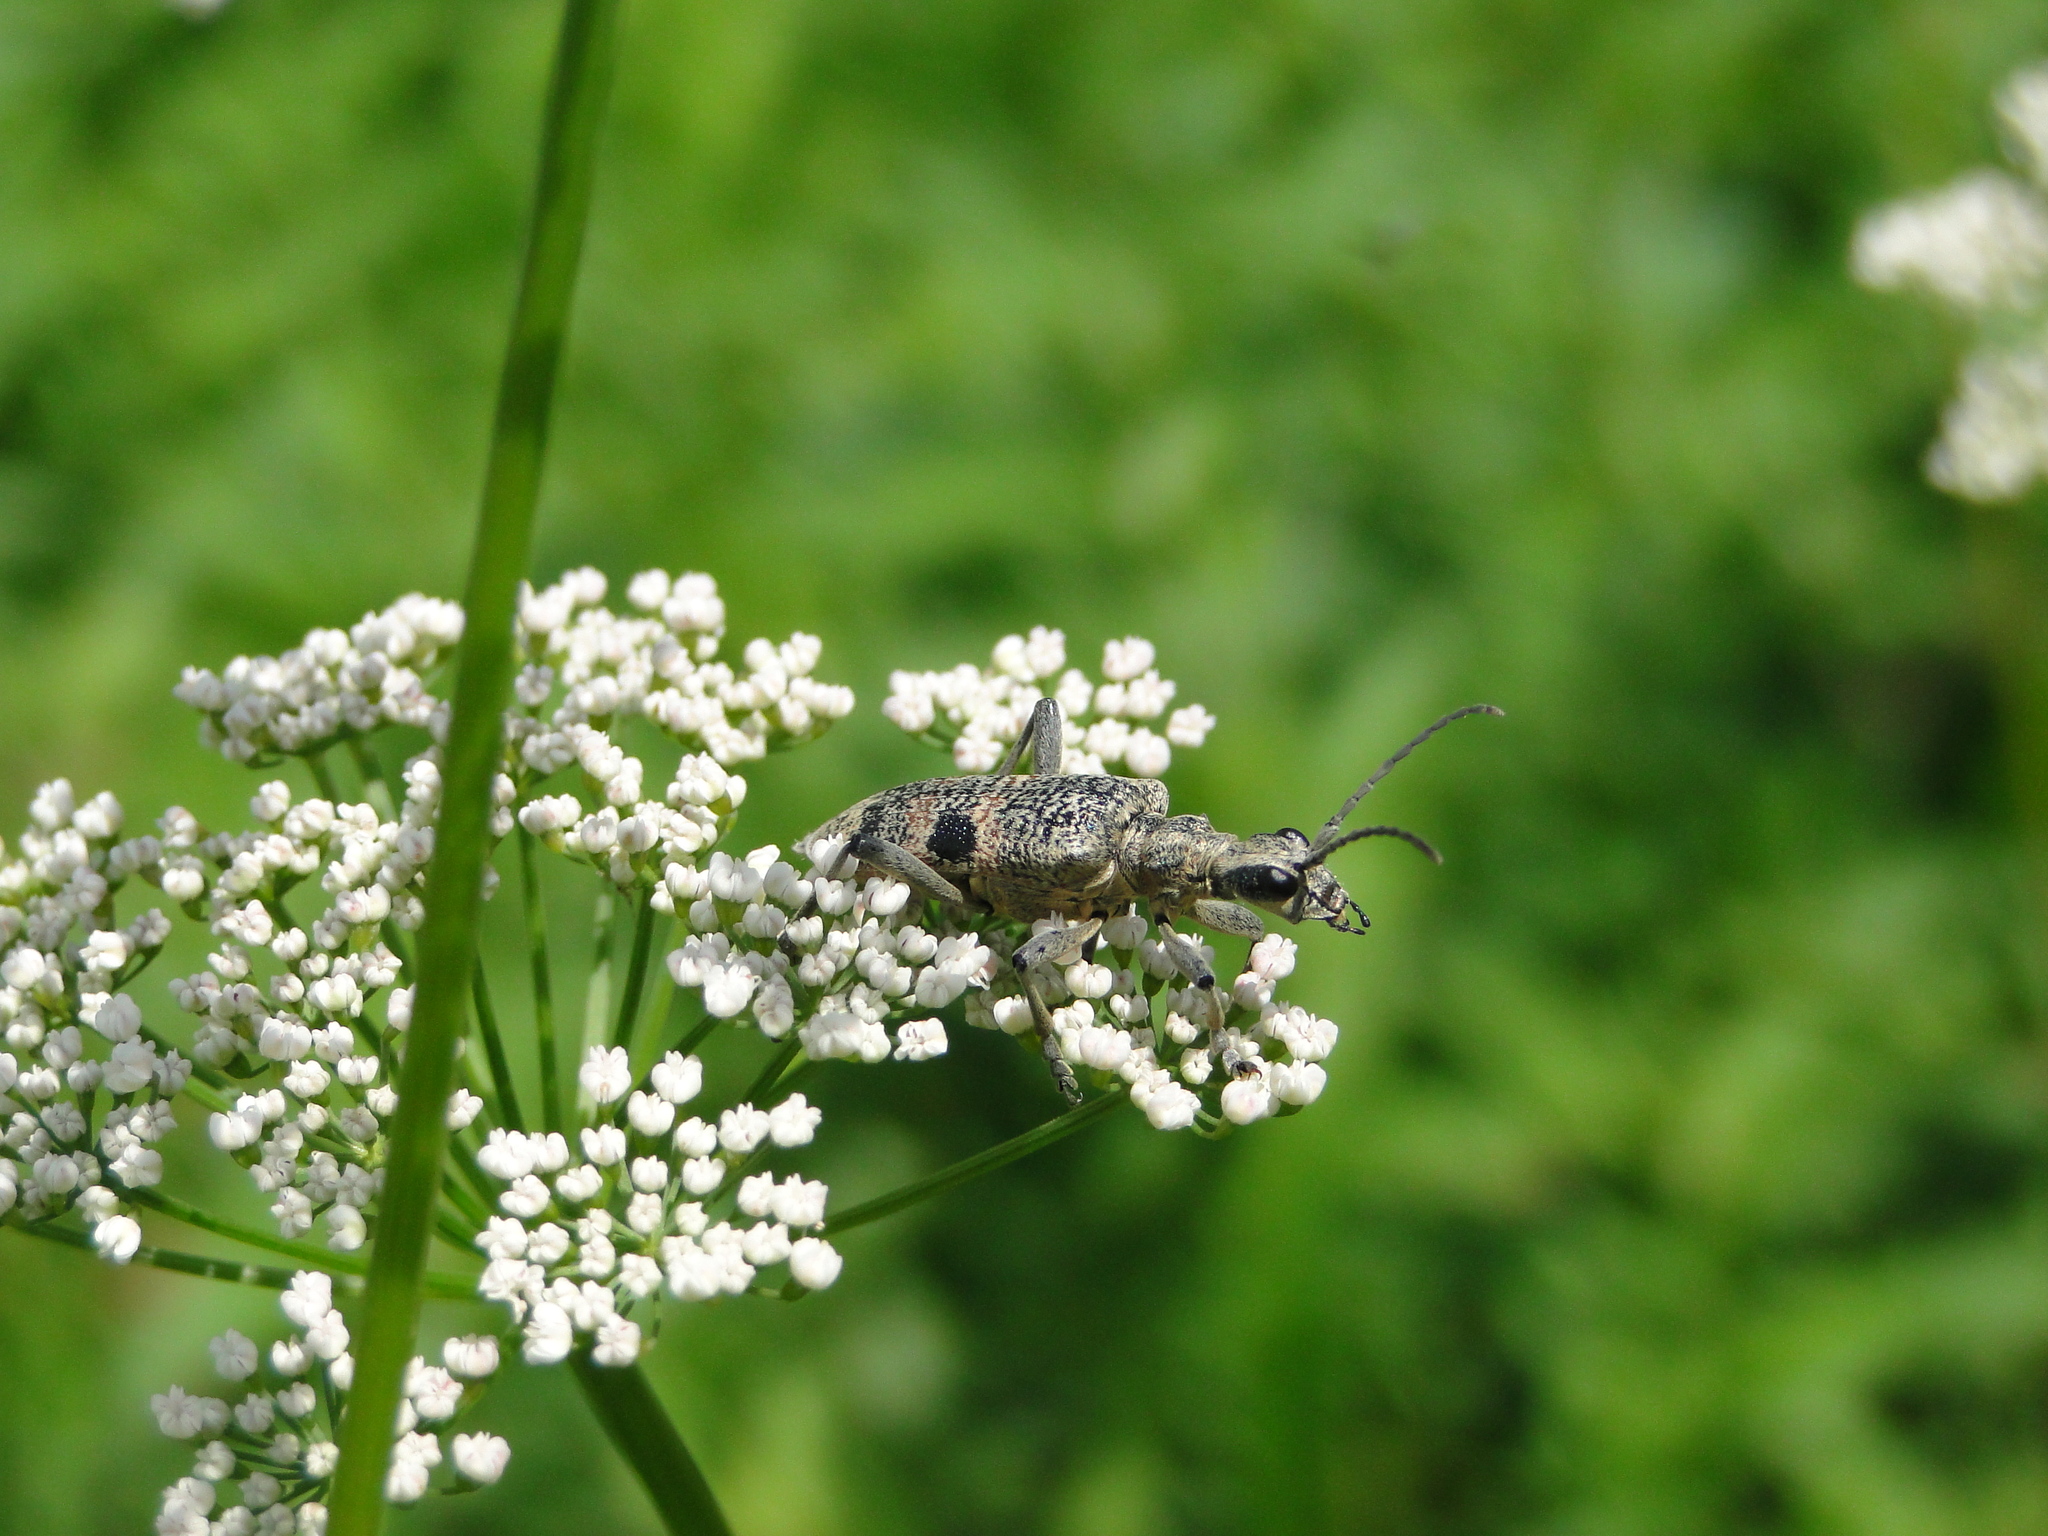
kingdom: Animalia
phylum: Arthropoda
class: Insecta
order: Coleoptera
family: Cerambycidae
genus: Rhagium
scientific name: Rhagium mordax
